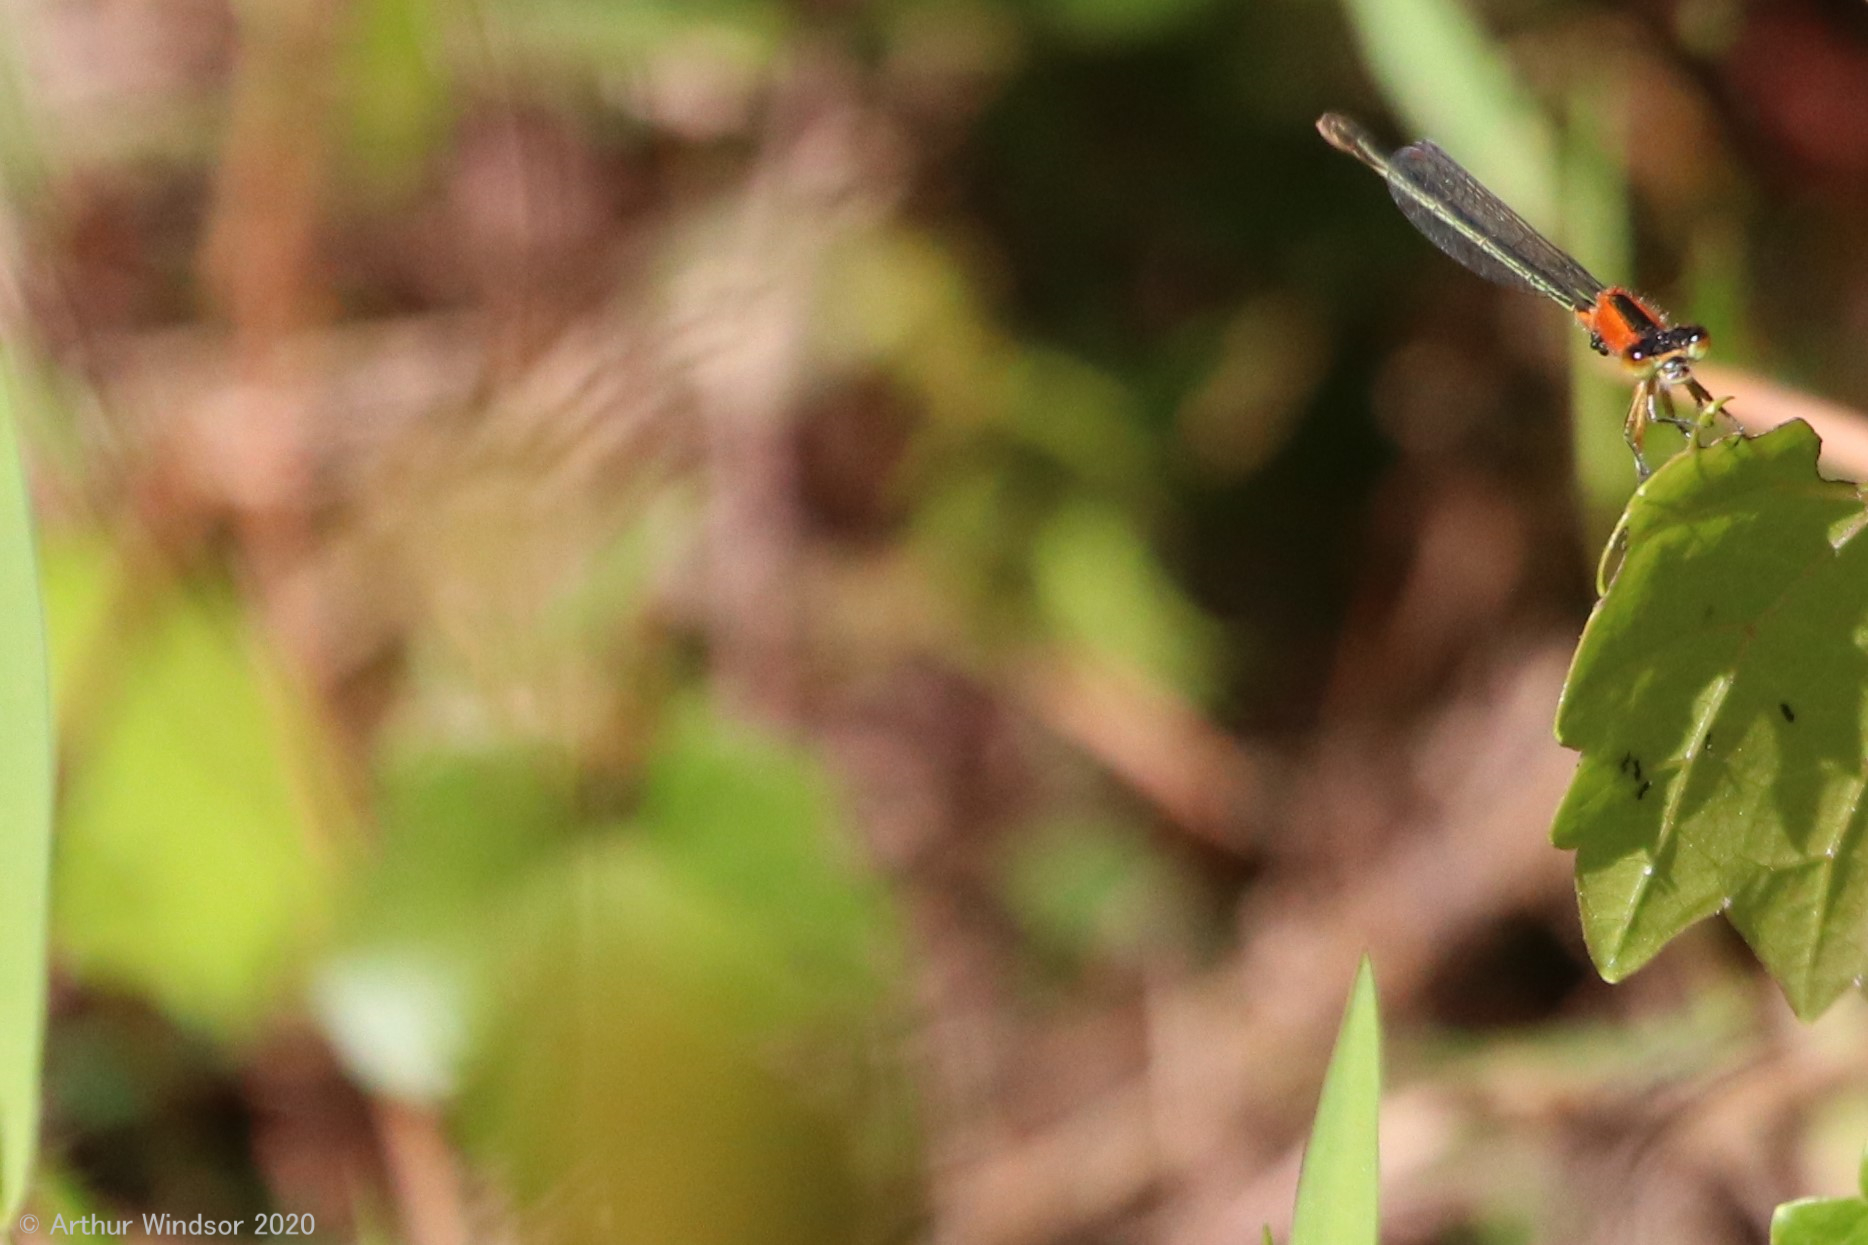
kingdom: Animalia
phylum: Arthropoda
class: Insecta
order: Odonata
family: Coenagrionidae
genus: Ischnura
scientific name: Ischnura ramburii
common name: Rambur's forktail
